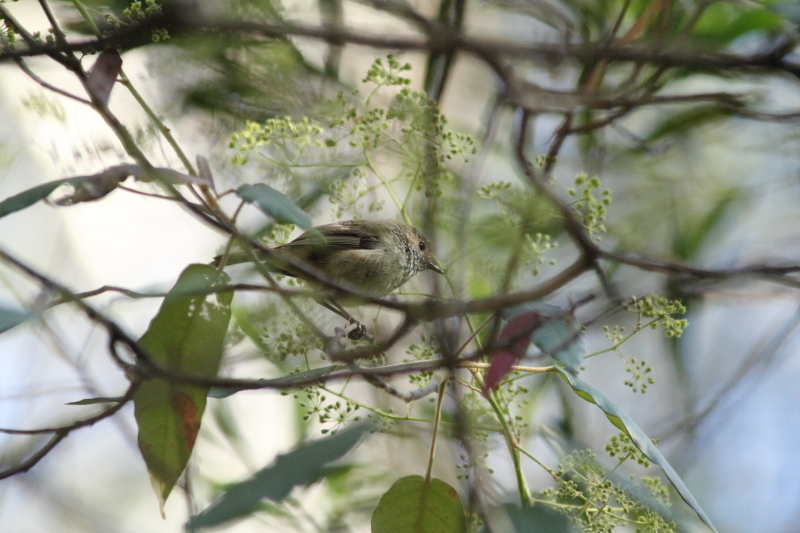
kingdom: Animalia
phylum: Chordata
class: Aves
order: Passeriformes
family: Acanthizidae
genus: Acanthiza
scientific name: Acanthiza pusilla
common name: Brown thornbill
